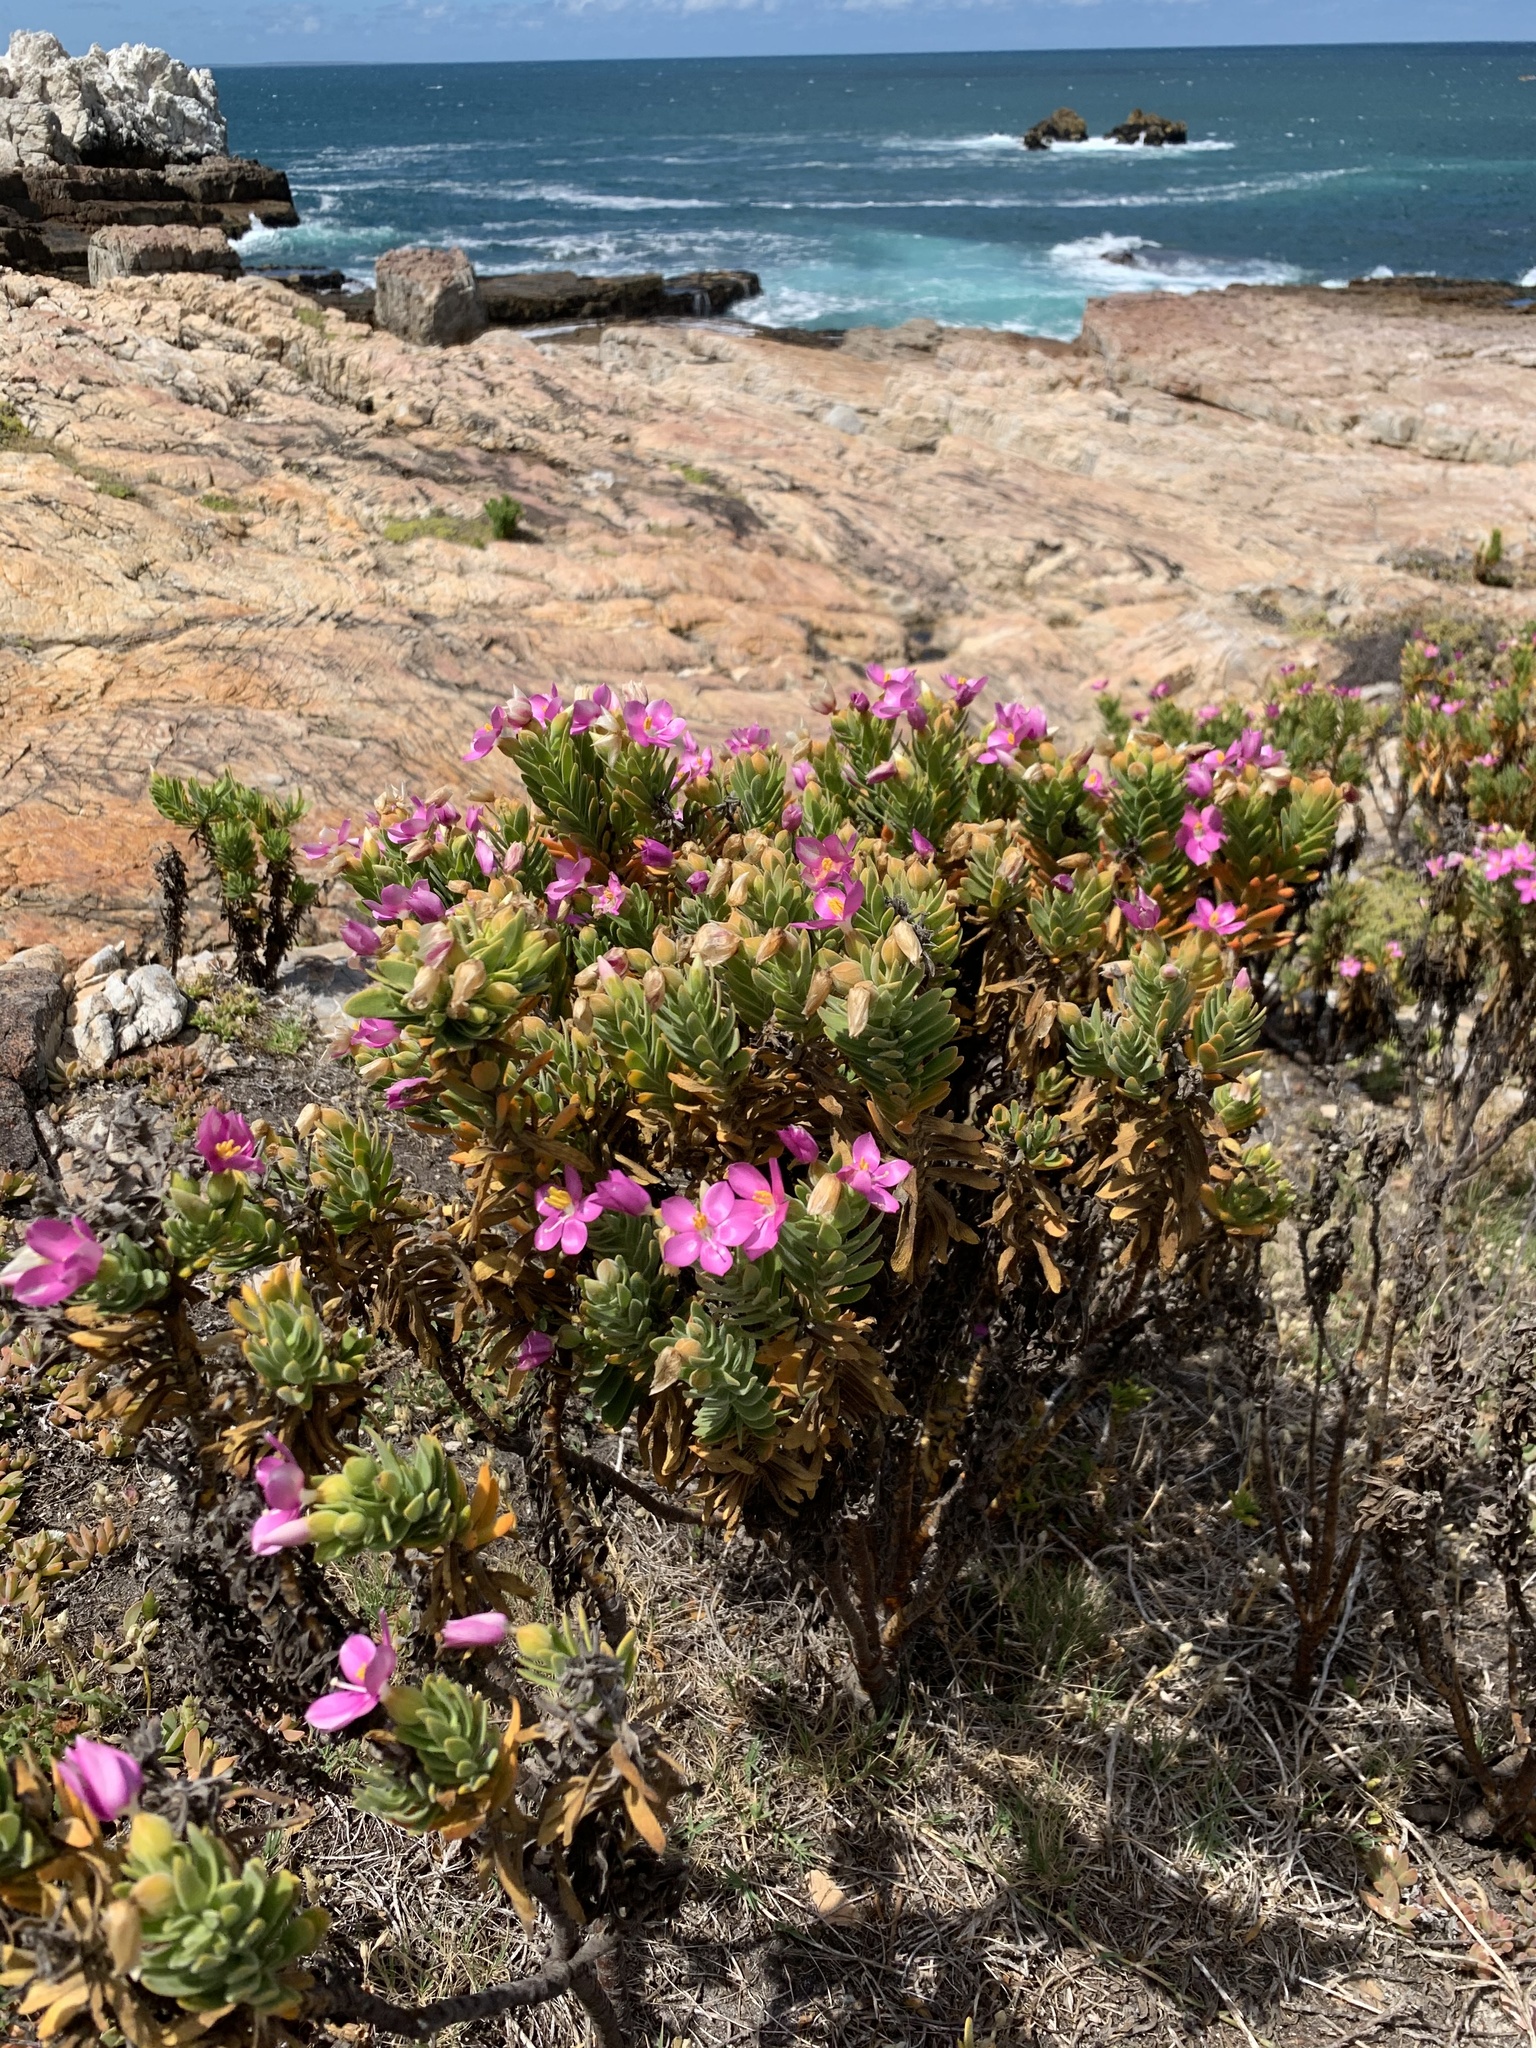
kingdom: Plantae
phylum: Tracheophyta
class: Magnoliopsida
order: Gentianales
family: Gentianaceae
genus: Orphium
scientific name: Orphium frutescens
